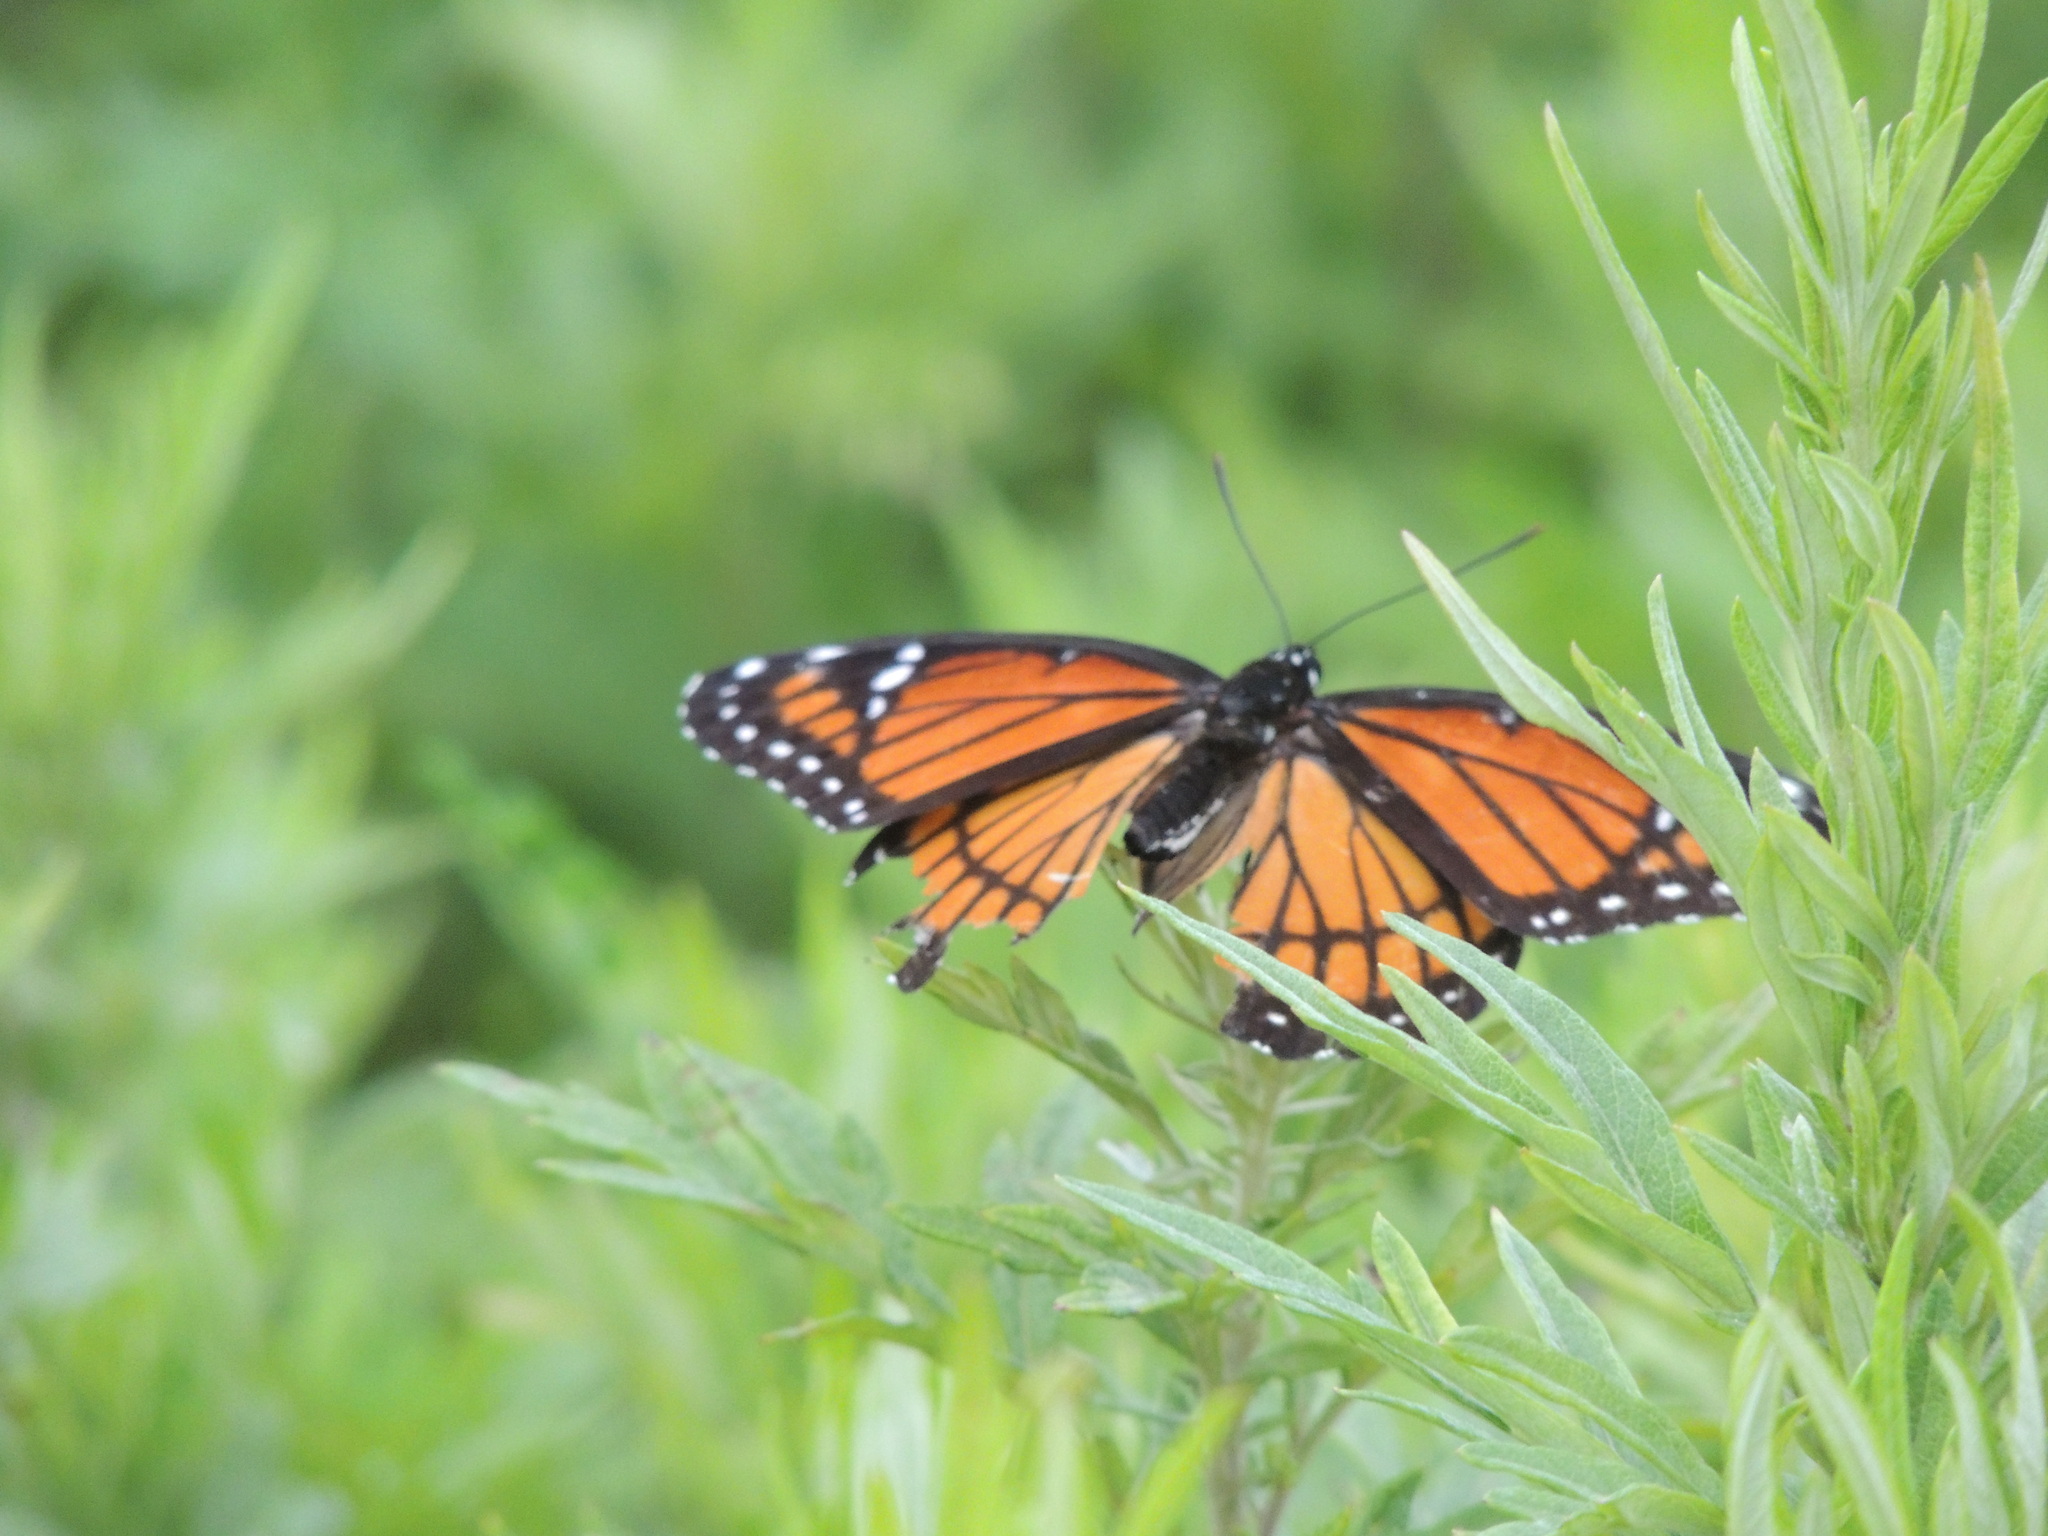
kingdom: Animalia
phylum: Arthropoda
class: Insecta
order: Lepidoptera
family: Nymphalidae
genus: Limenitis
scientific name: Limenitis archippus
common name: Viceroy
